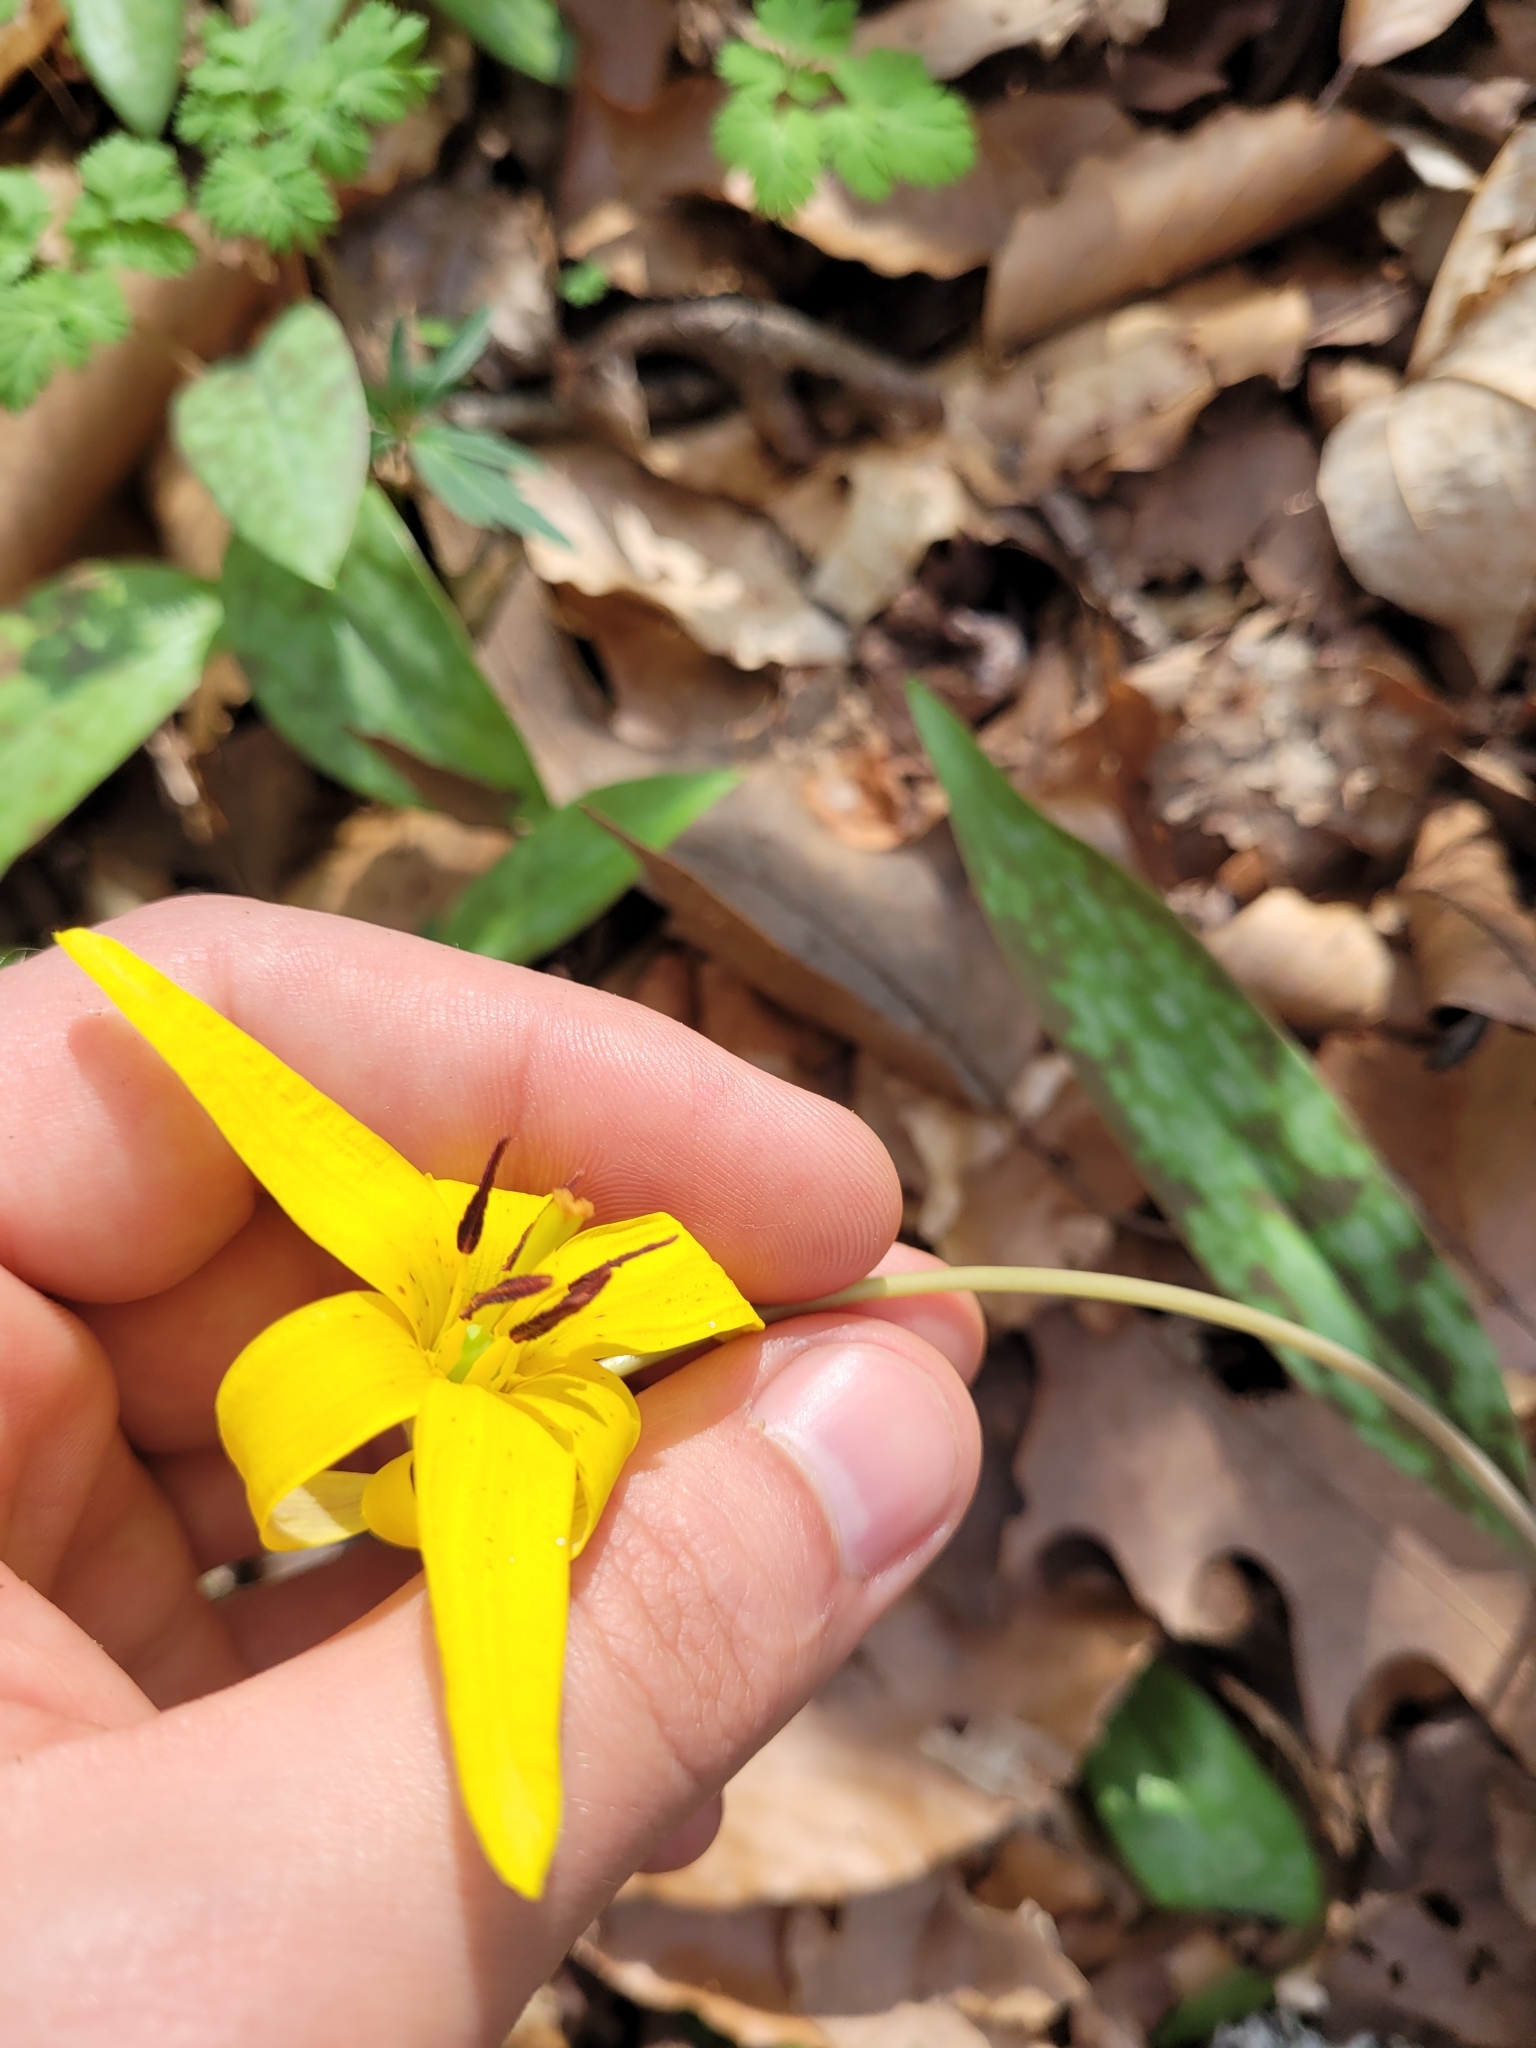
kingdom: Plantae
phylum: Tracheophyta
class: Liliopsida
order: Liliales
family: Liliaceae
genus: Erythronium
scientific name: Erythronium americanum
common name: Yellow adder's-tongue
